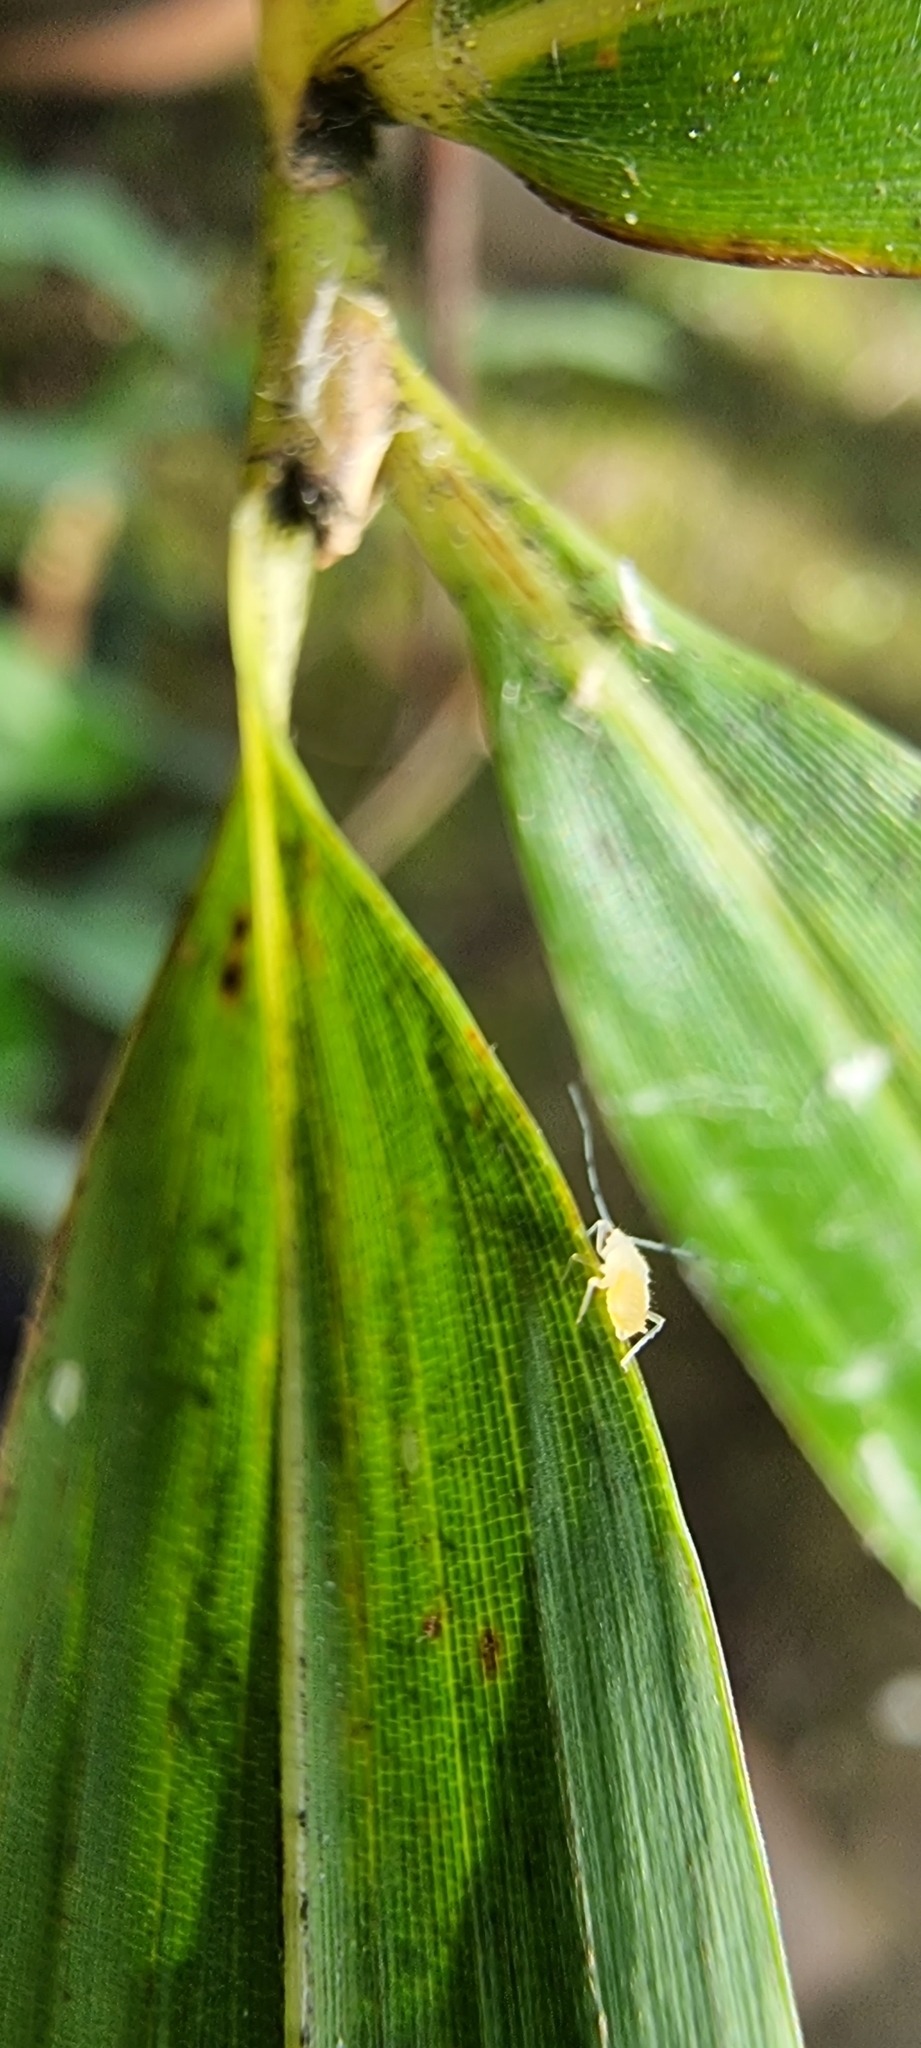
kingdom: Animalia
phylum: Arthropoda
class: Insecta
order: Hemiptera
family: Aphididae
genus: Takecallis
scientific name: Takecallis arundicolens
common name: Aphid
